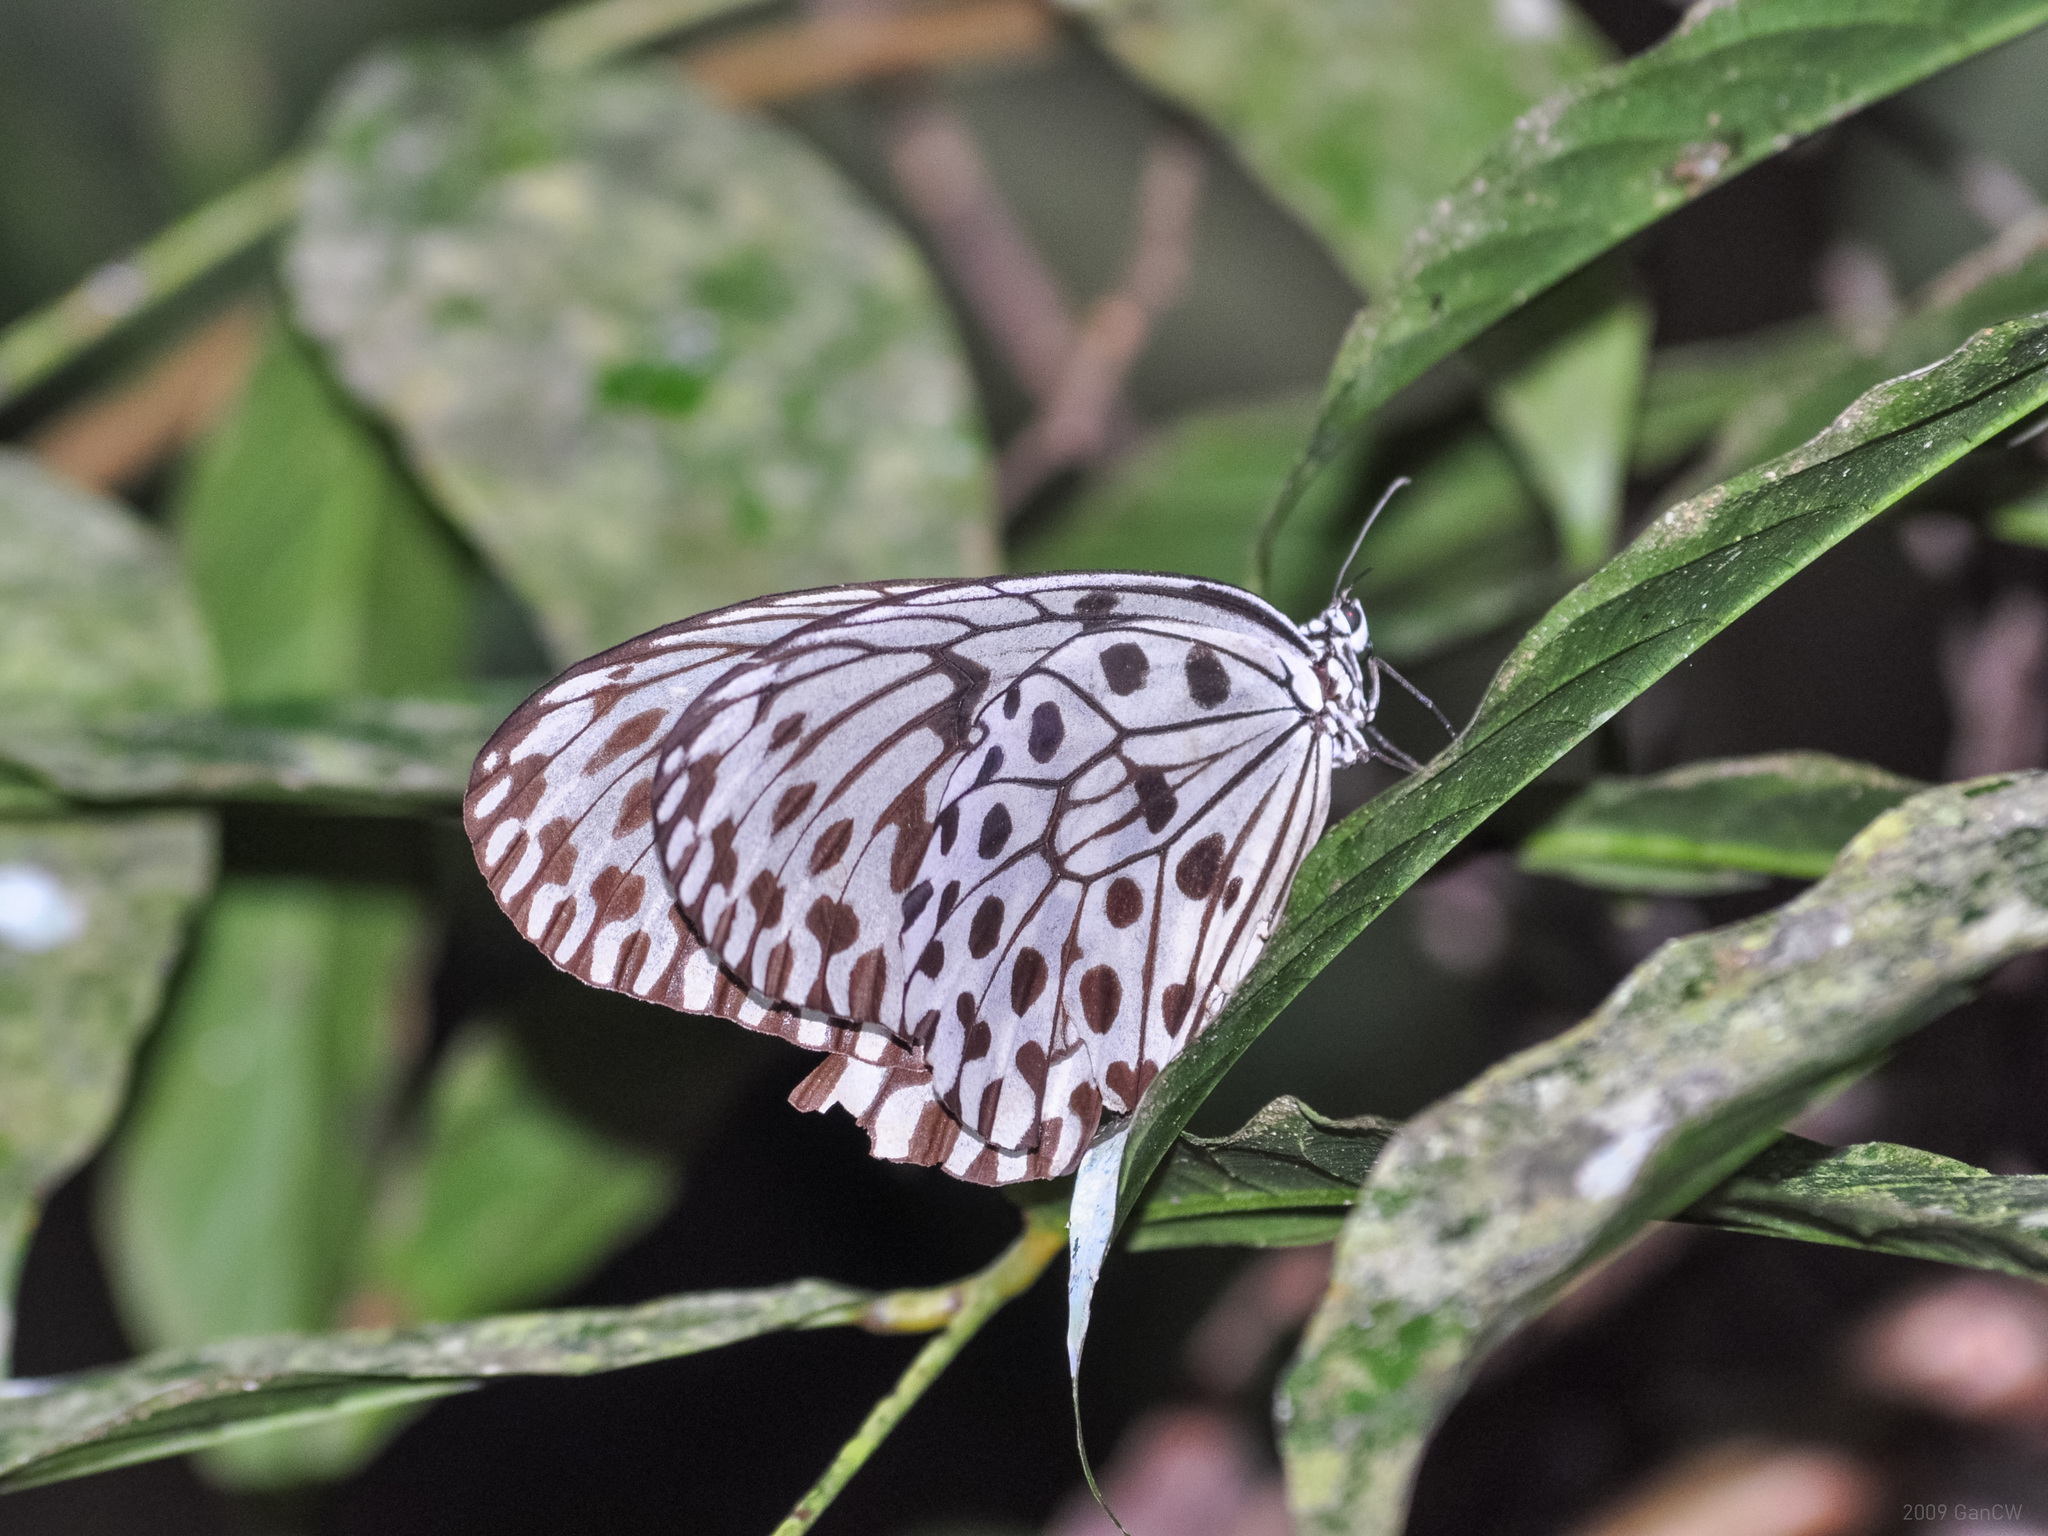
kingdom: Animalia
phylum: Arthropoda
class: Insecta
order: Lepidoptera
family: Nymphalidae
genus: Idea
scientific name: Idea hypermnestra
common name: Malayan tree nymph
